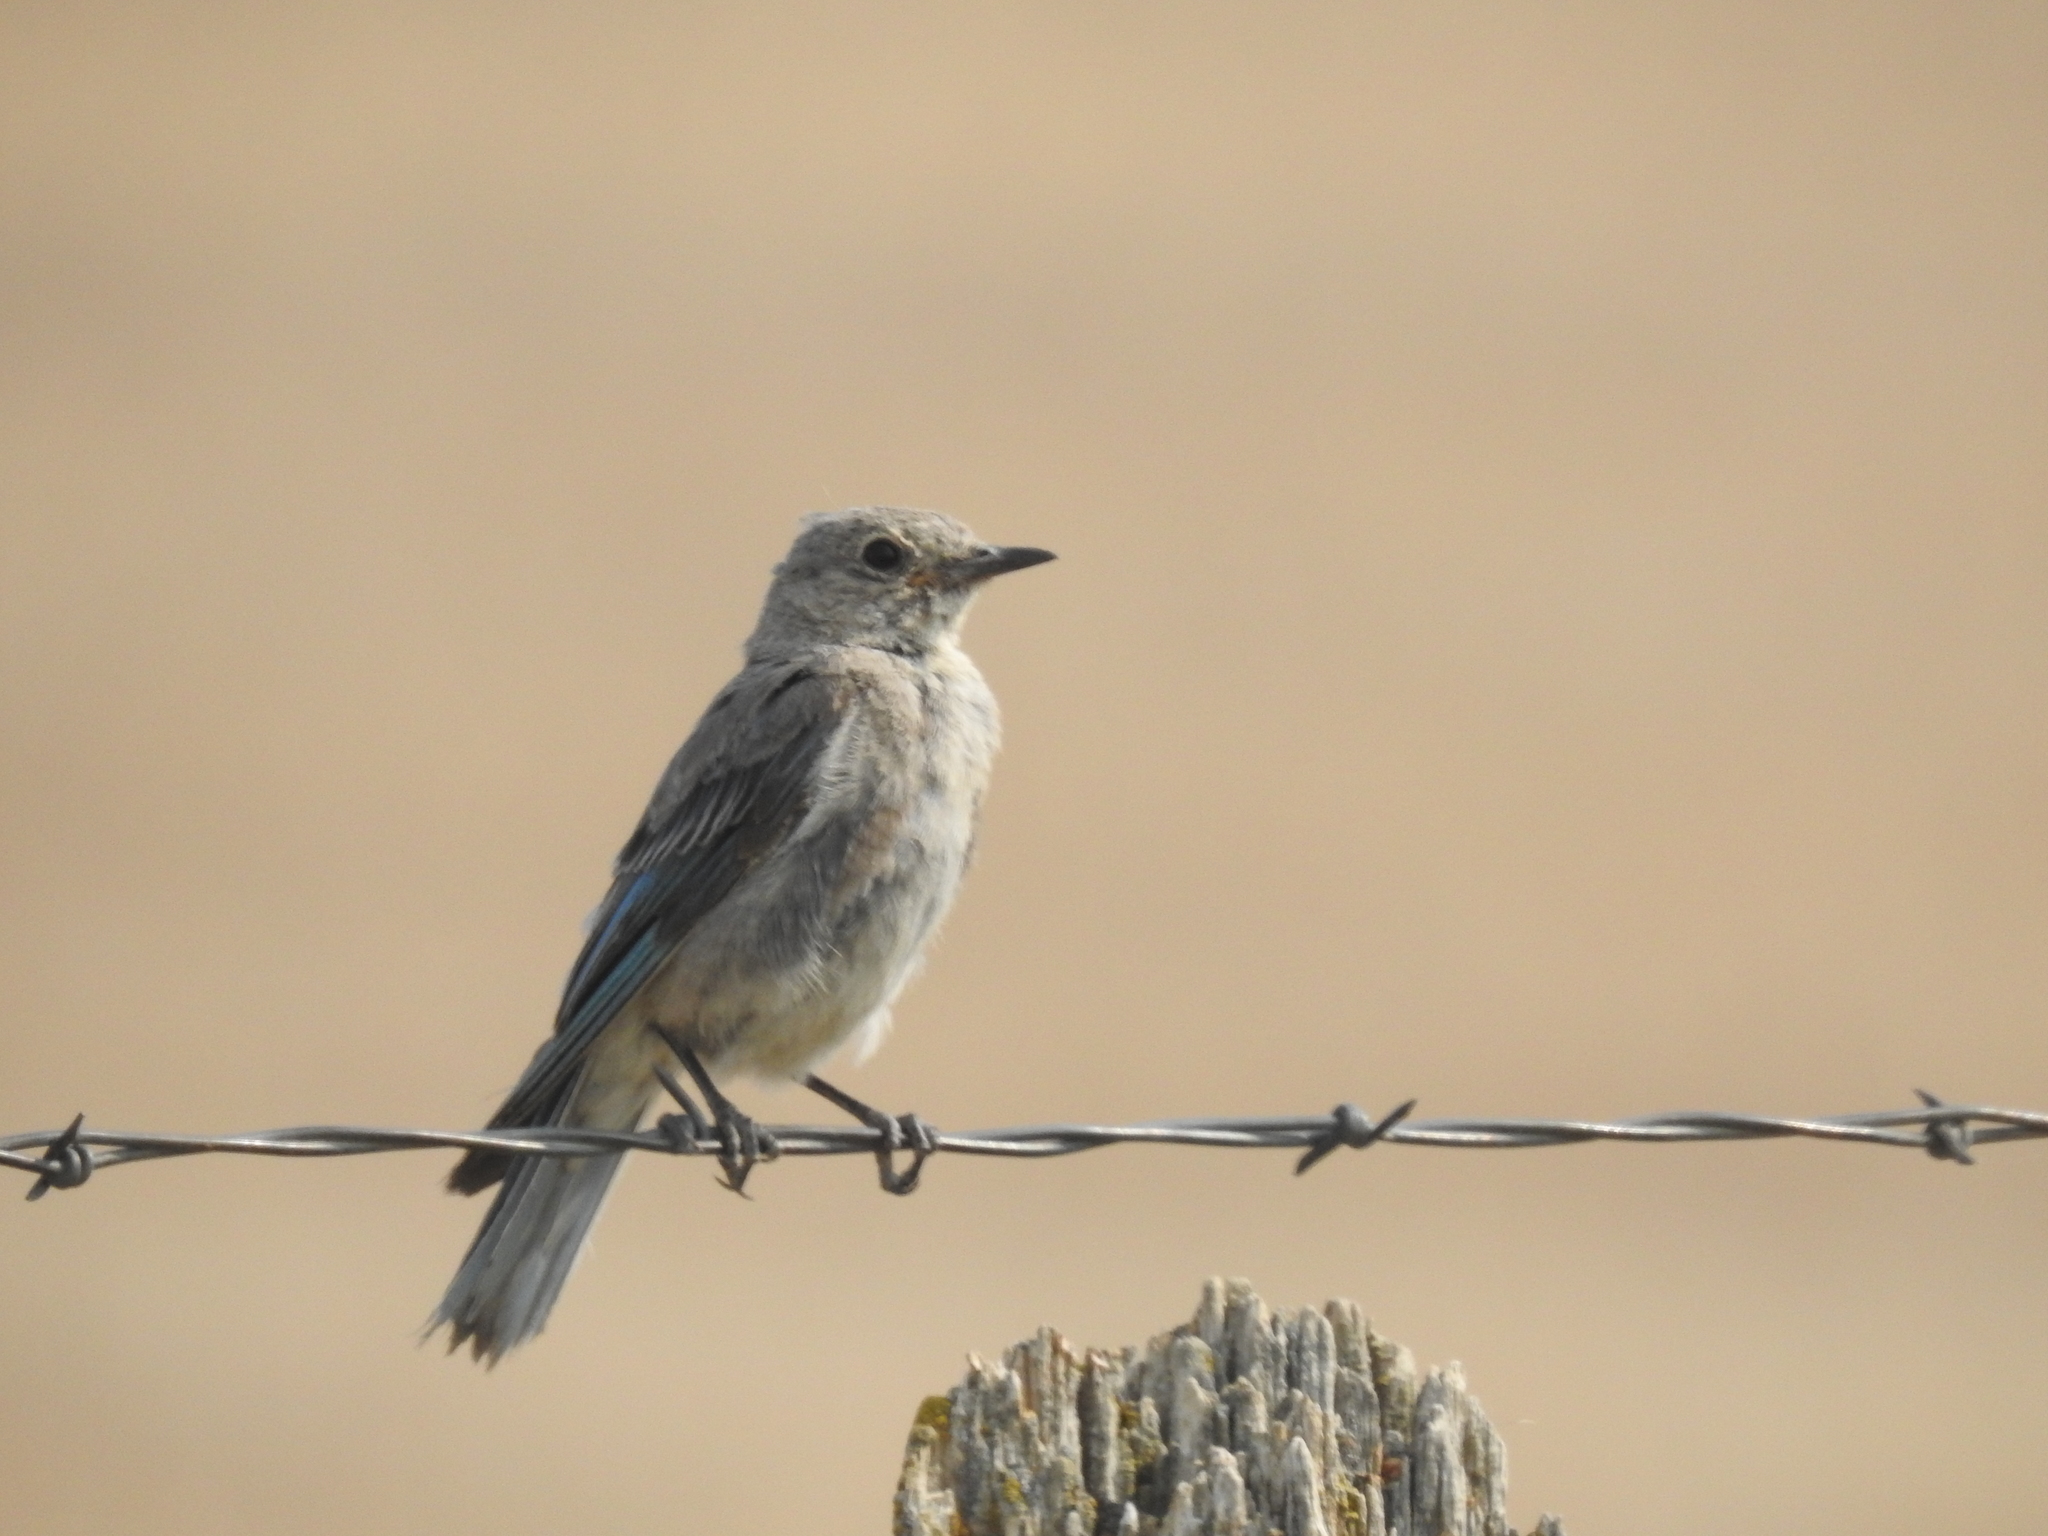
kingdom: Animalia
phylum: Chordata
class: Aves
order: Passeriformes
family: Turdidae
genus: Sialia
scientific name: Sialia currucoides
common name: Mountain bluebird
